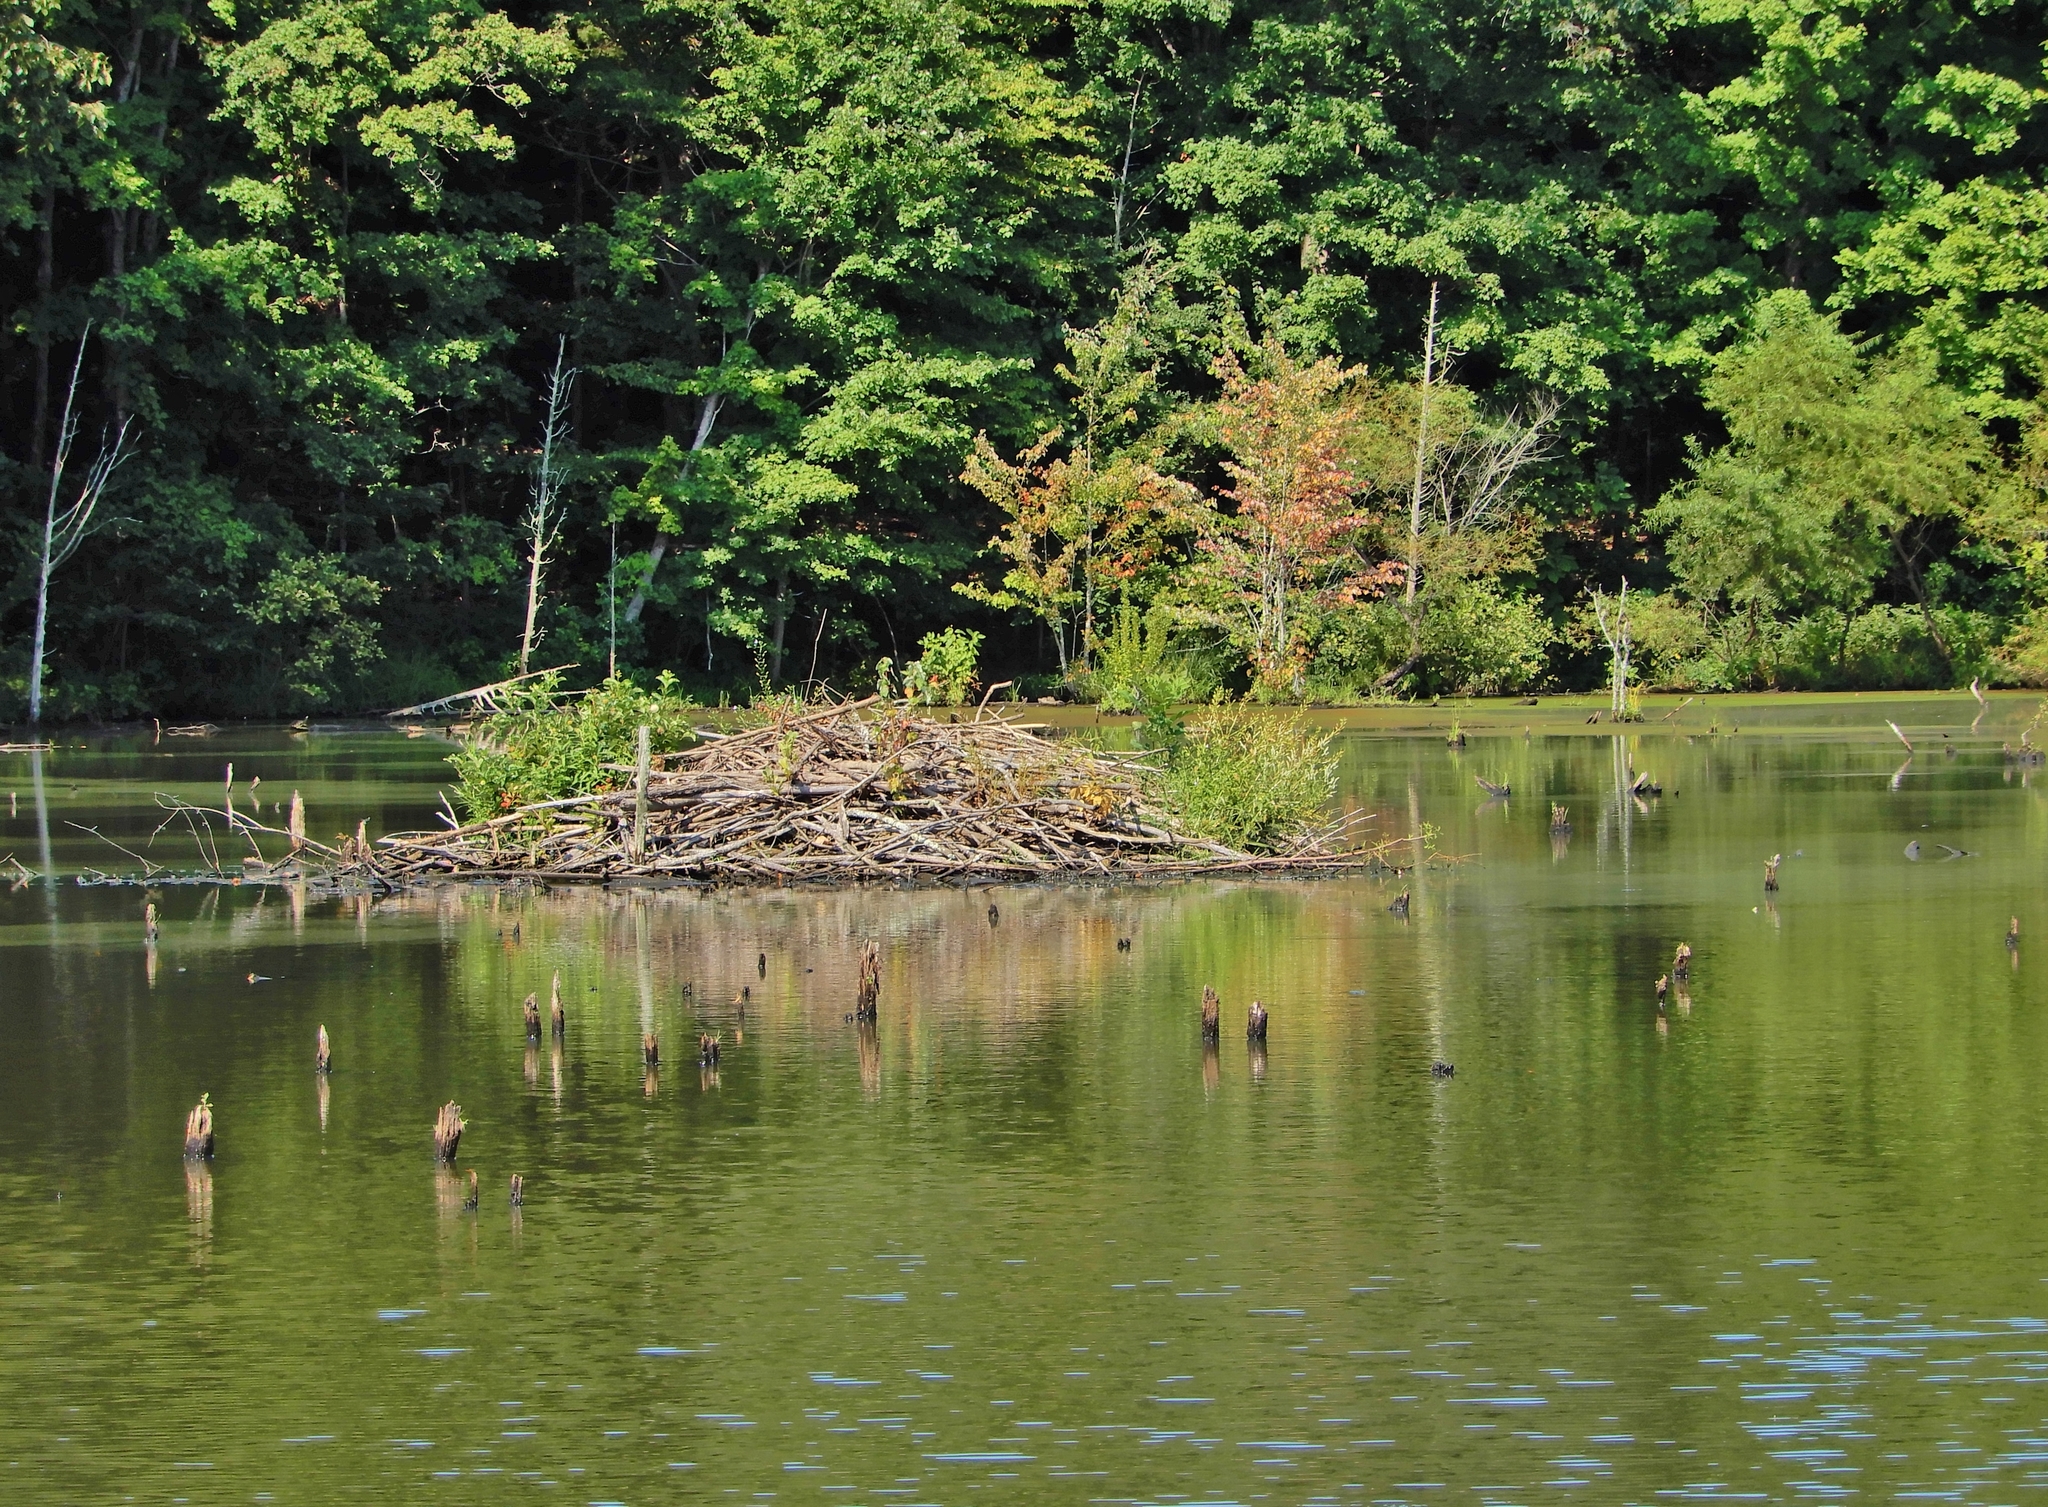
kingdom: Animalia
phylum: Chordata
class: Mammalia
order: Rodentia
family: Castoridae
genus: Castor
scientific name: Castor canadensis
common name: American beaver
